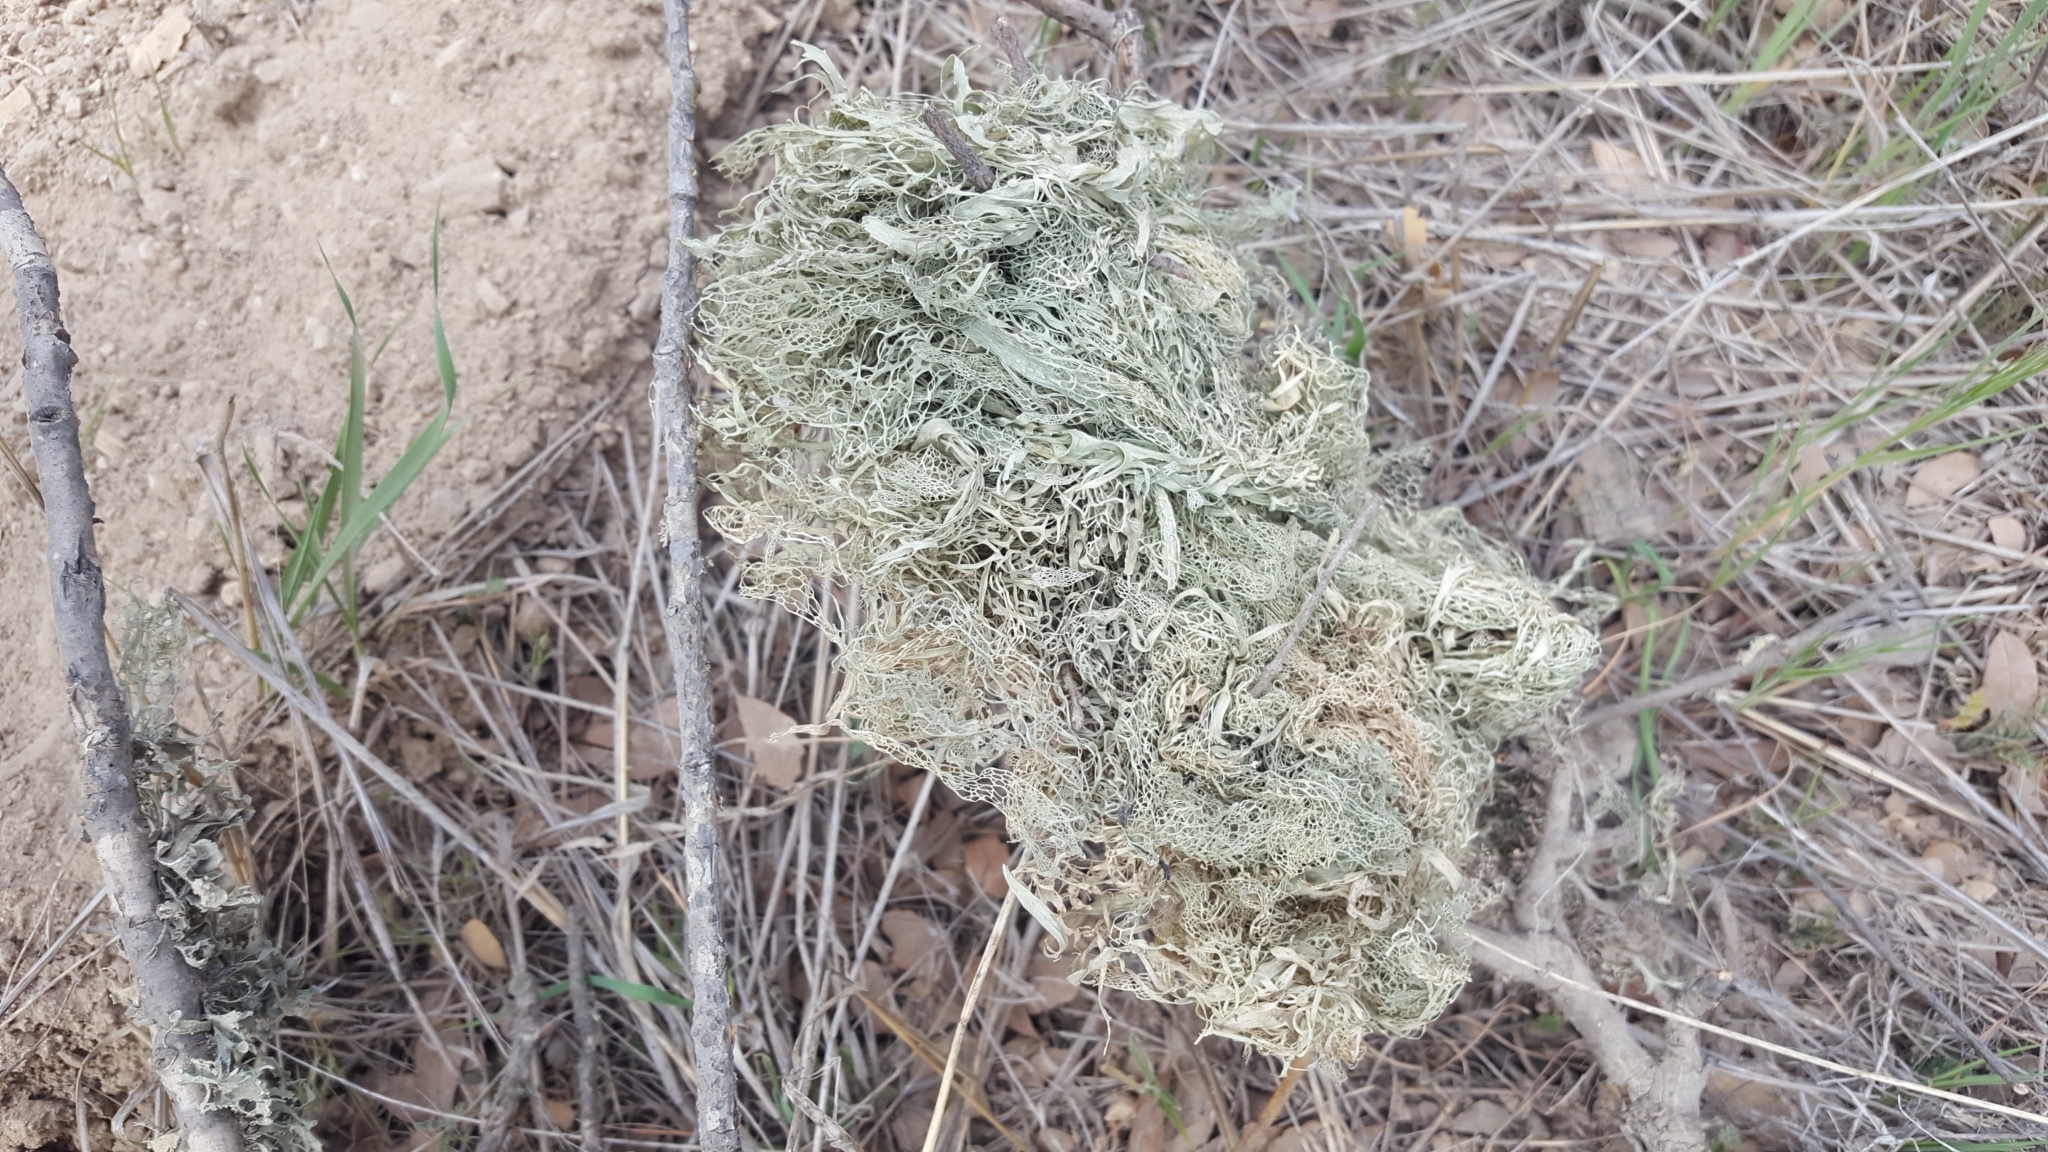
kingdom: Fungi
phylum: Ascomycota
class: Lecanoromycetes
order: Lecanorales
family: Ramalinaceae
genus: Ramalina
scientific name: Ramalina menziesii
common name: Lace lichen
